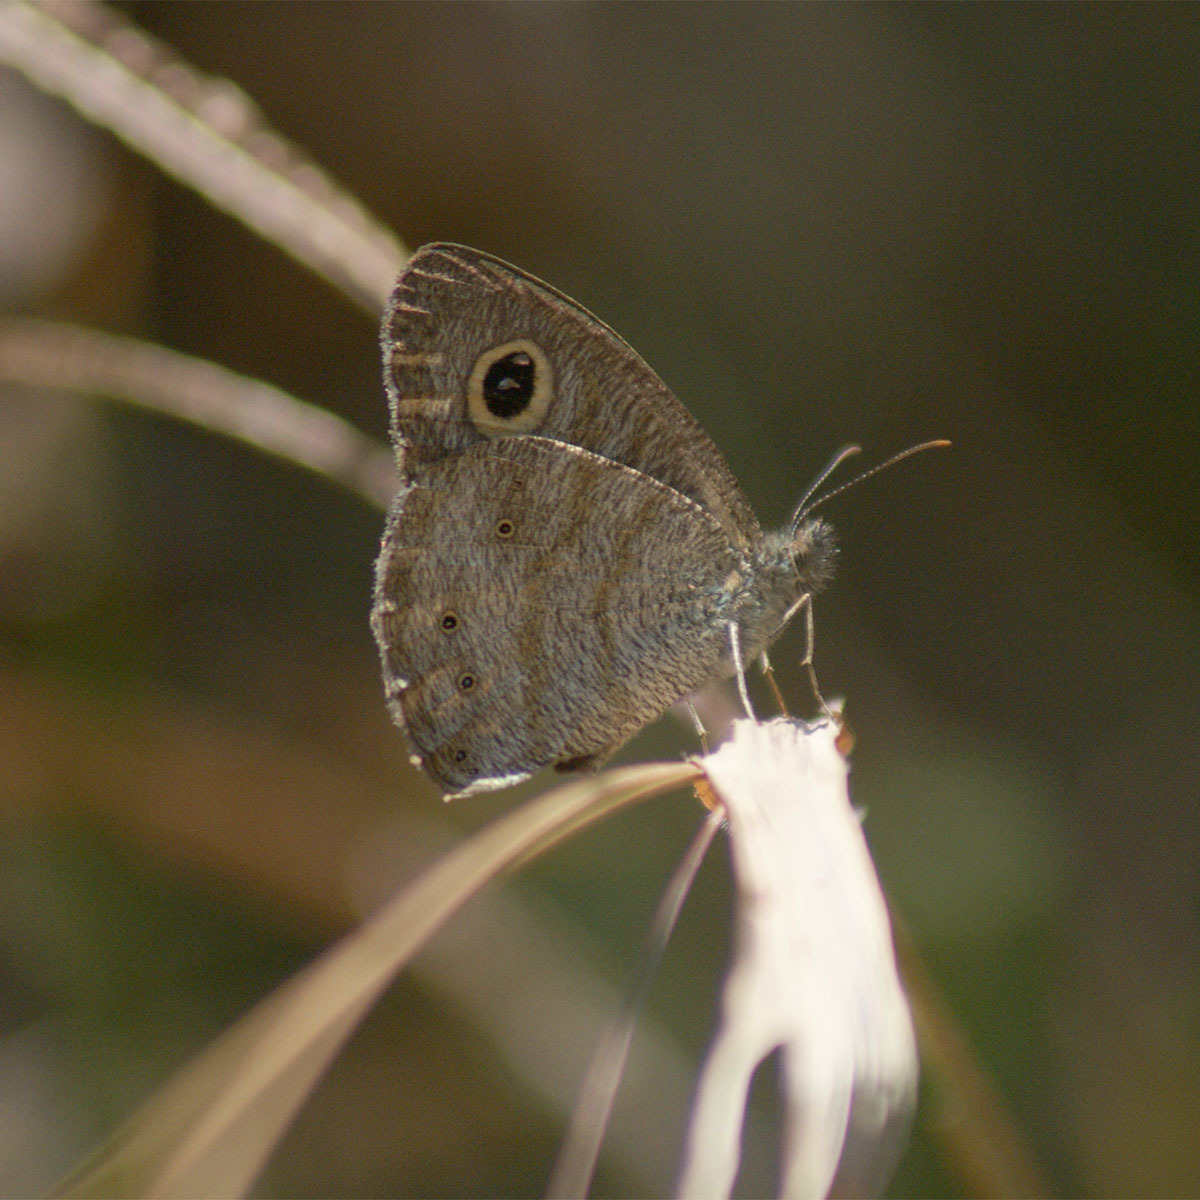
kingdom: Animalia
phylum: Arthropoda
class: Insecta
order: Lepidoptera
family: Nymphalidae
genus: Ypthima
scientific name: Ypthima baldus
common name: Common five-ring
